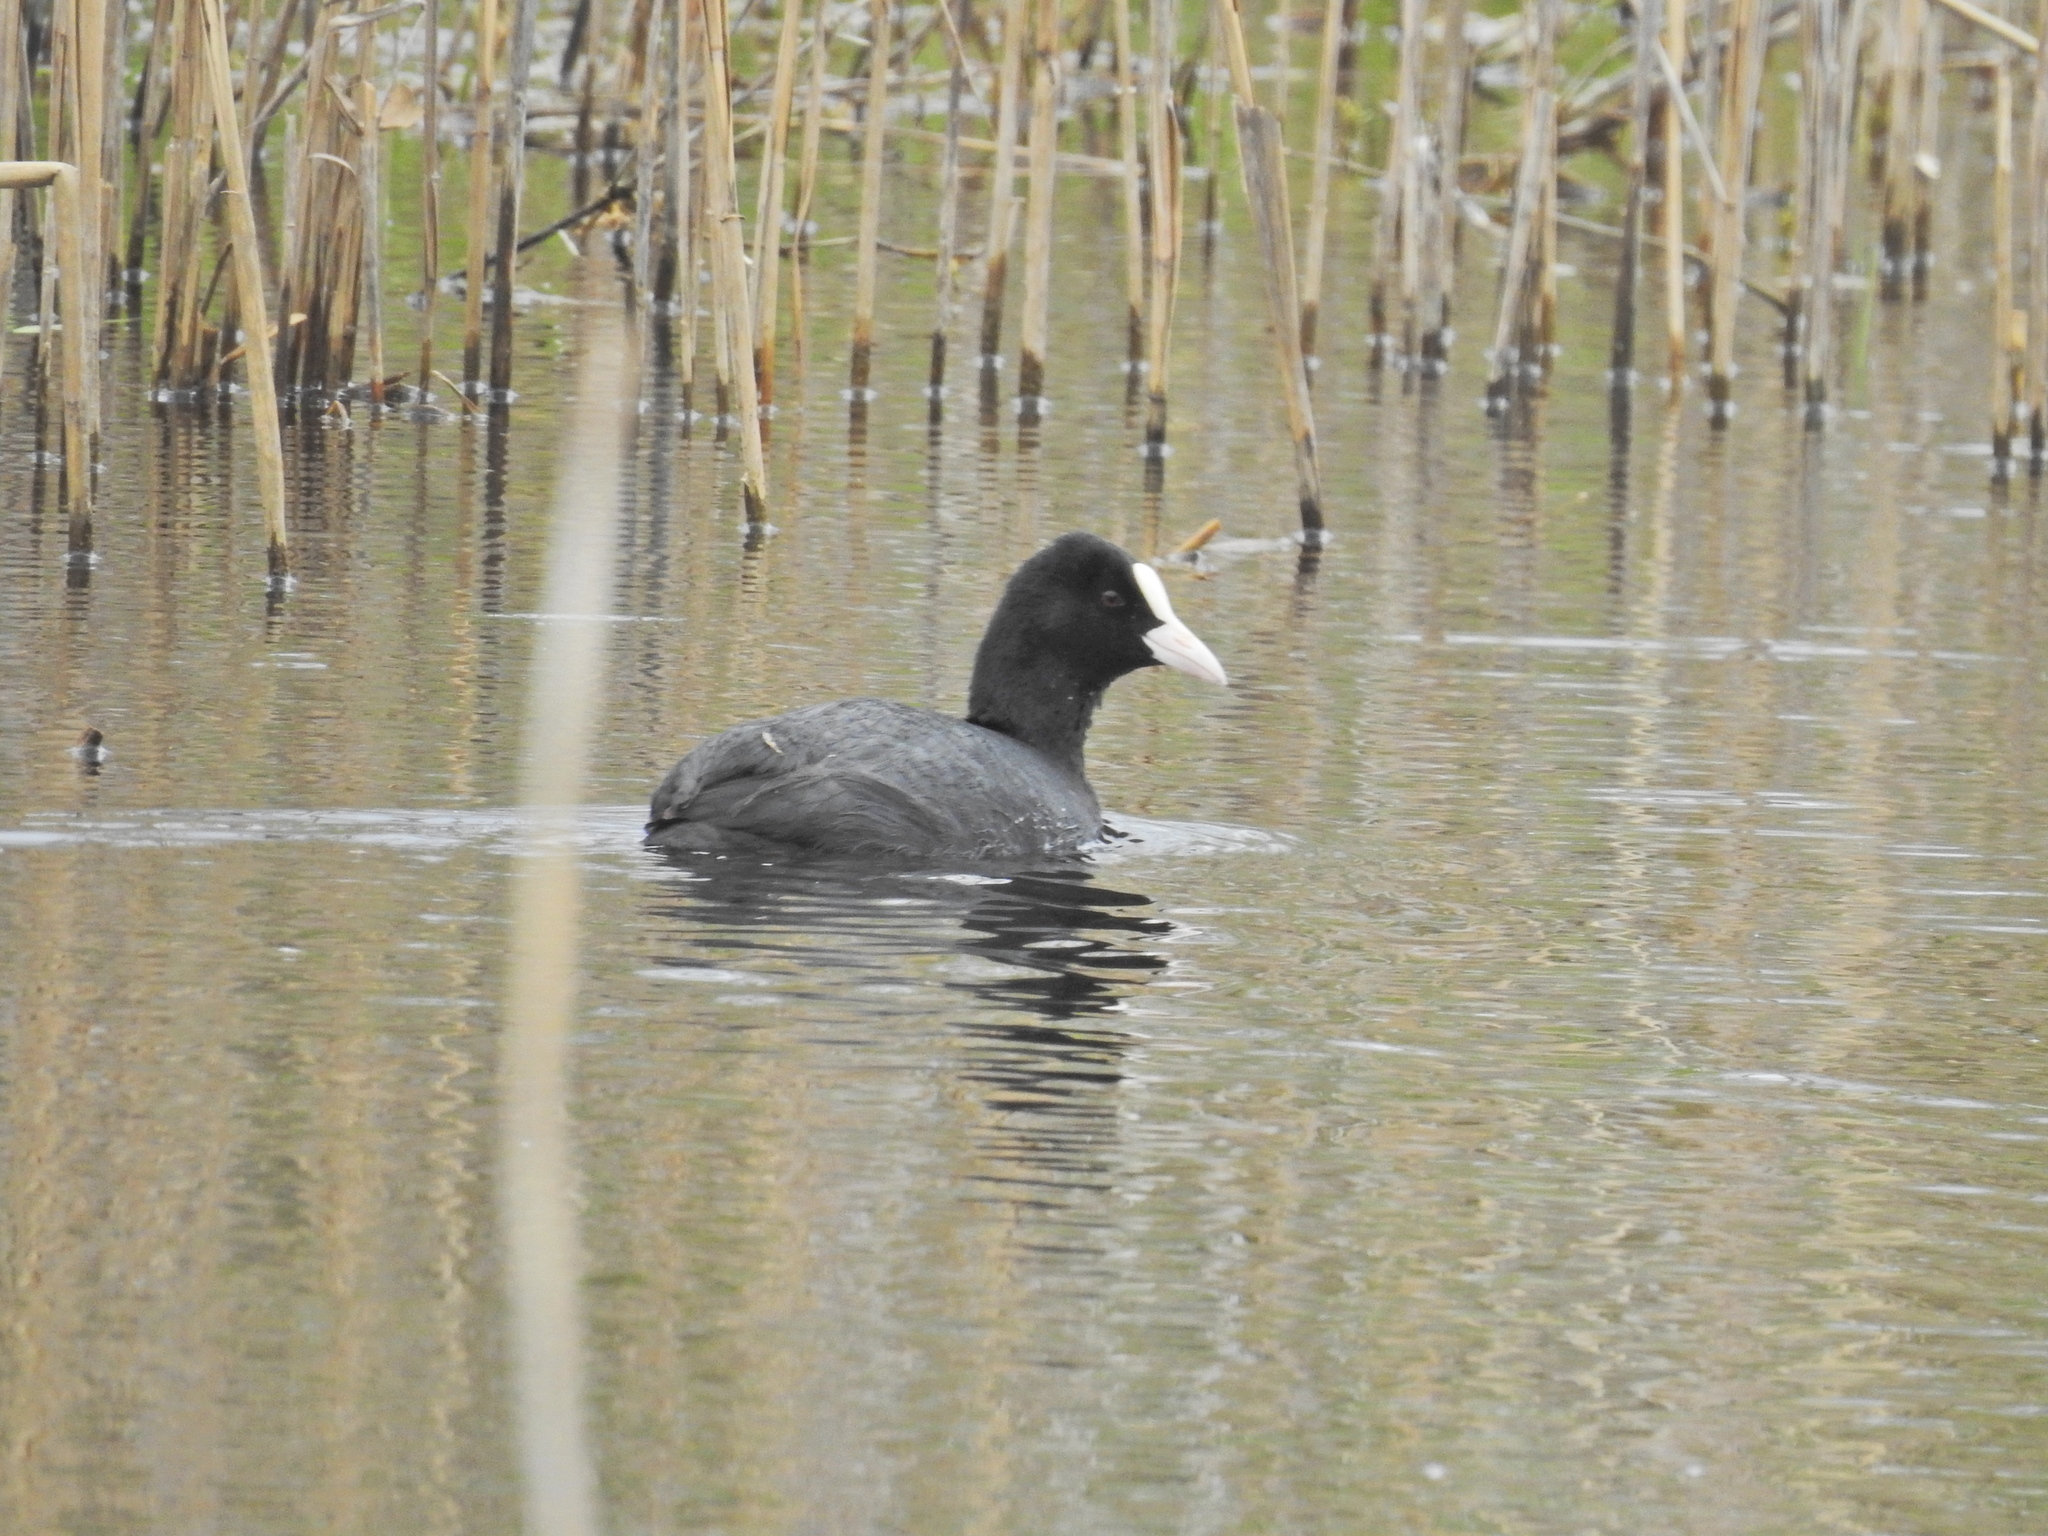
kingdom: Animalia
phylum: Chordata
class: Aves
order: Gruiformes
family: Rallidae
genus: Fulica
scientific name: Fulica atra
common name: Eurasian coot
